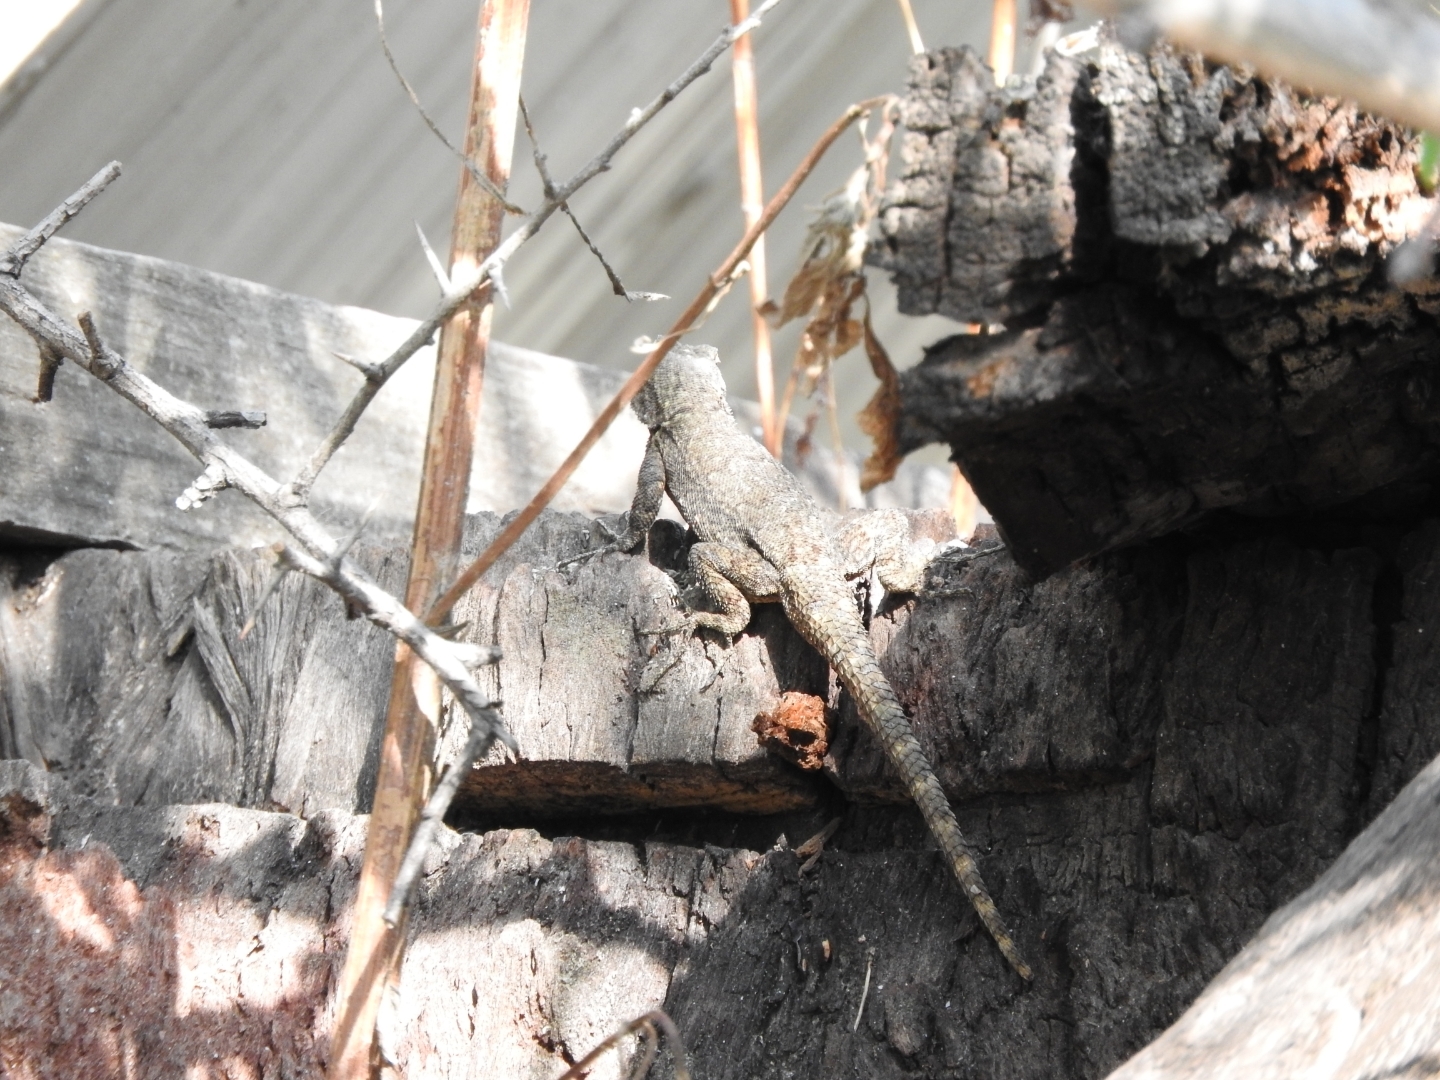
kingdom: Animalia
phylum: Chordata
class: Squamata
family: Phrynosomatidae
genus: Sceloporus
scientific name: Sceloporus grammicus
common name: Mesquite lizard
